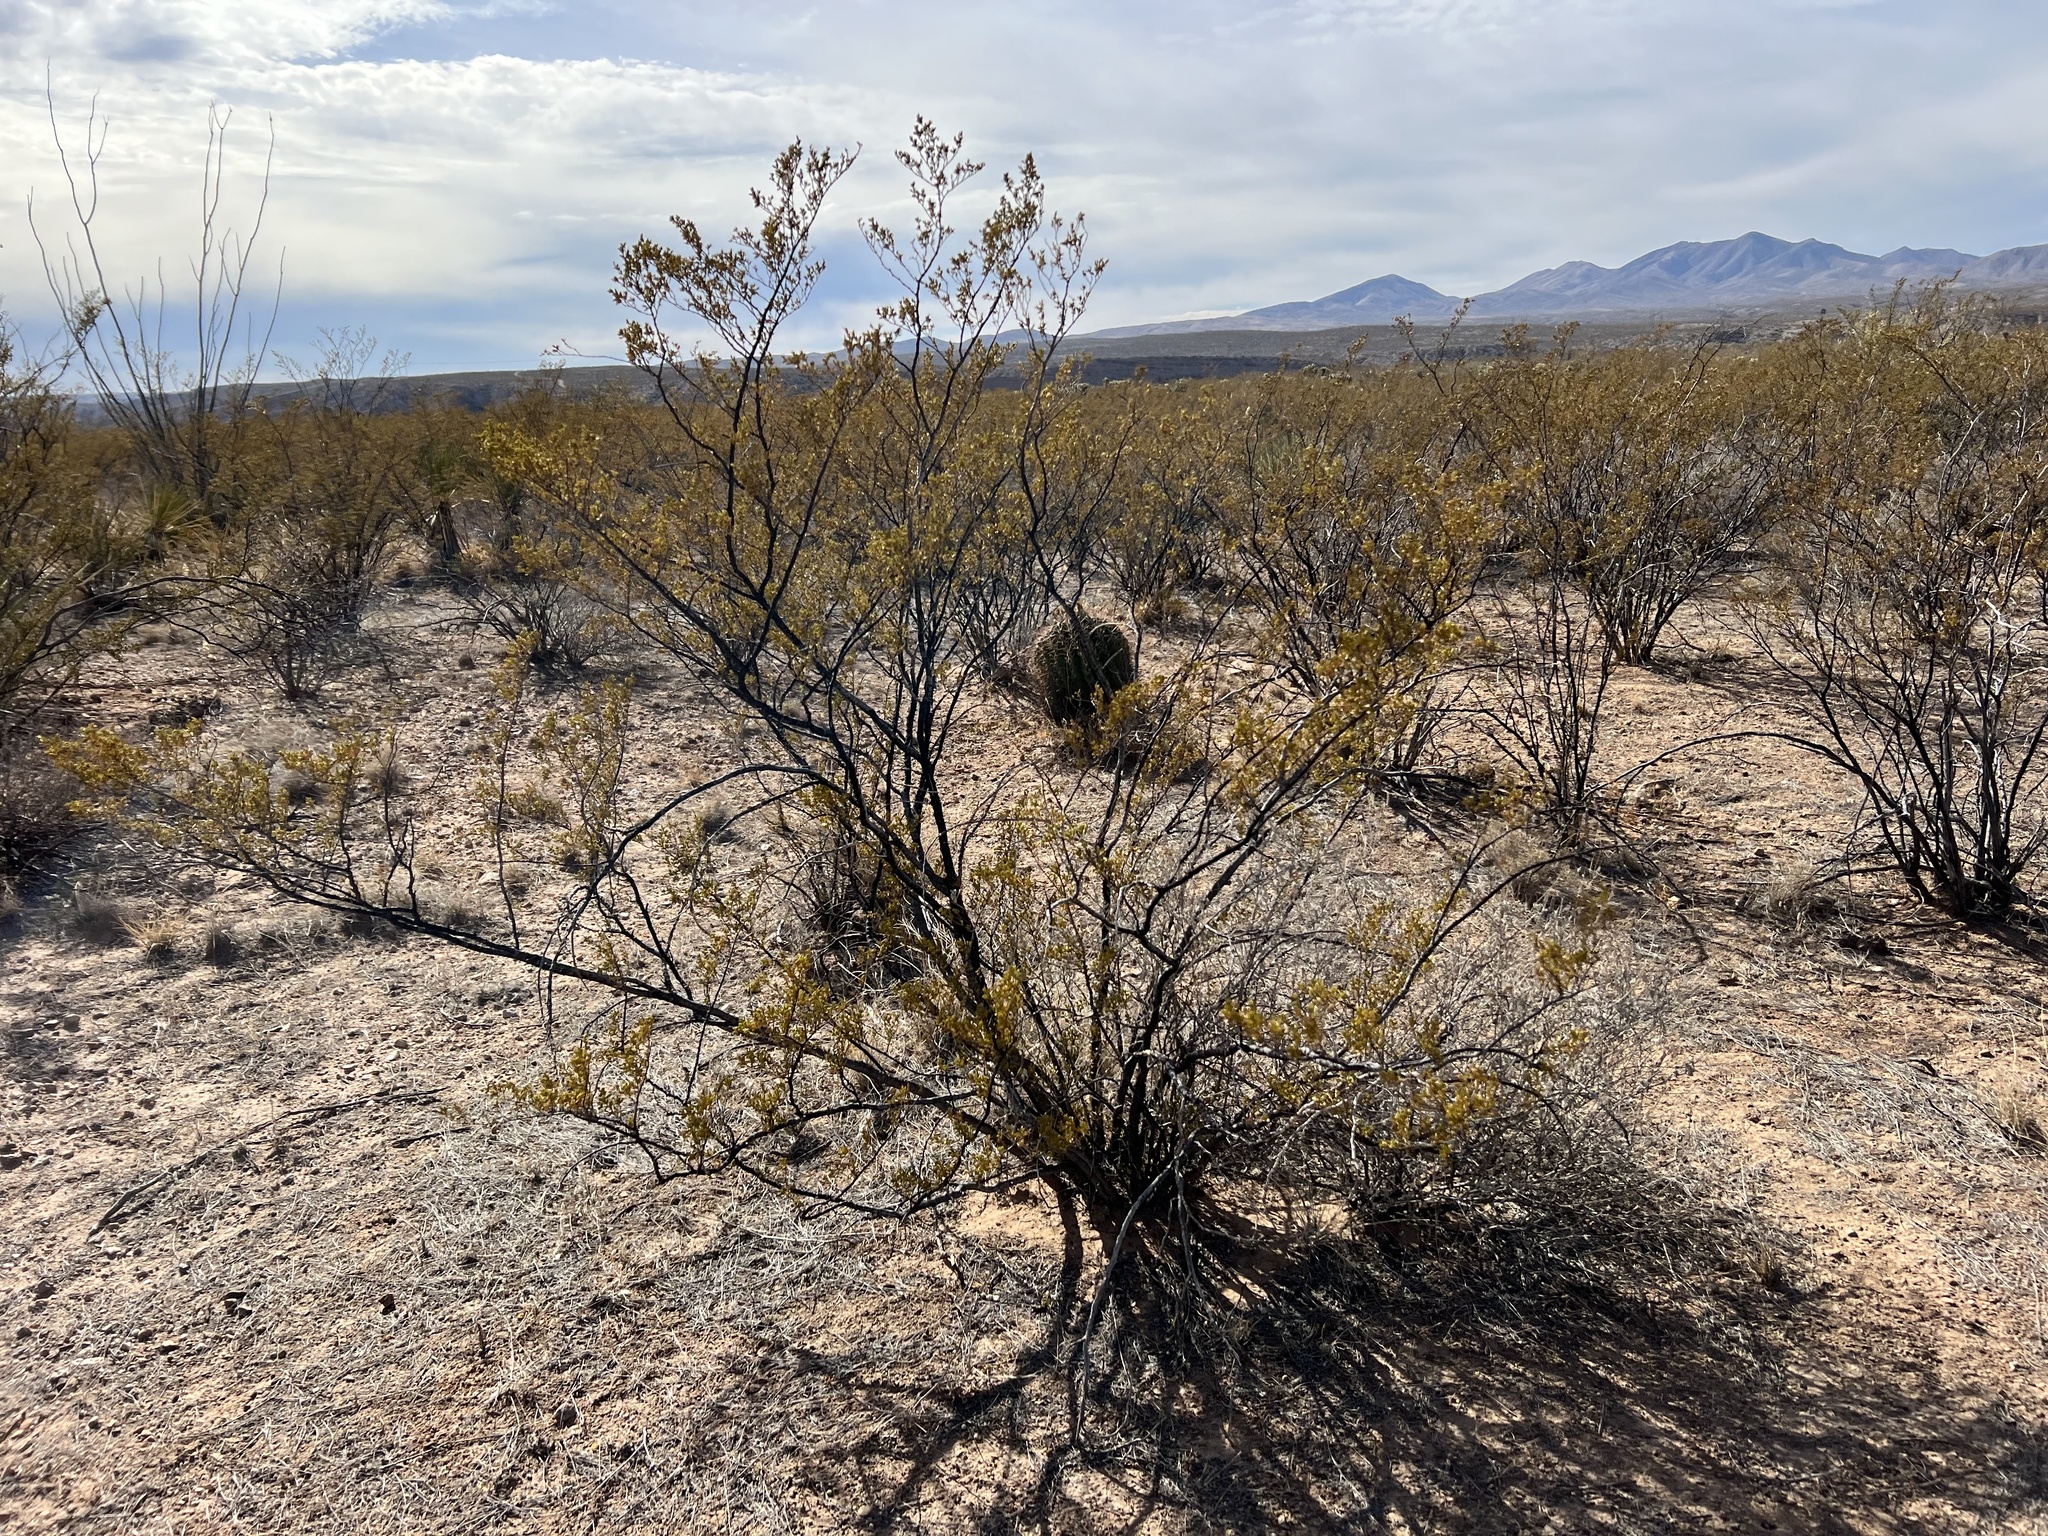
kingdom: Plantae
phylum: Tracheophyta
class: Magnoliopsida
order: Zygophyllales
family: Zygophyllaceae
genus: Larrea
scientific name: Larrea tridentata
